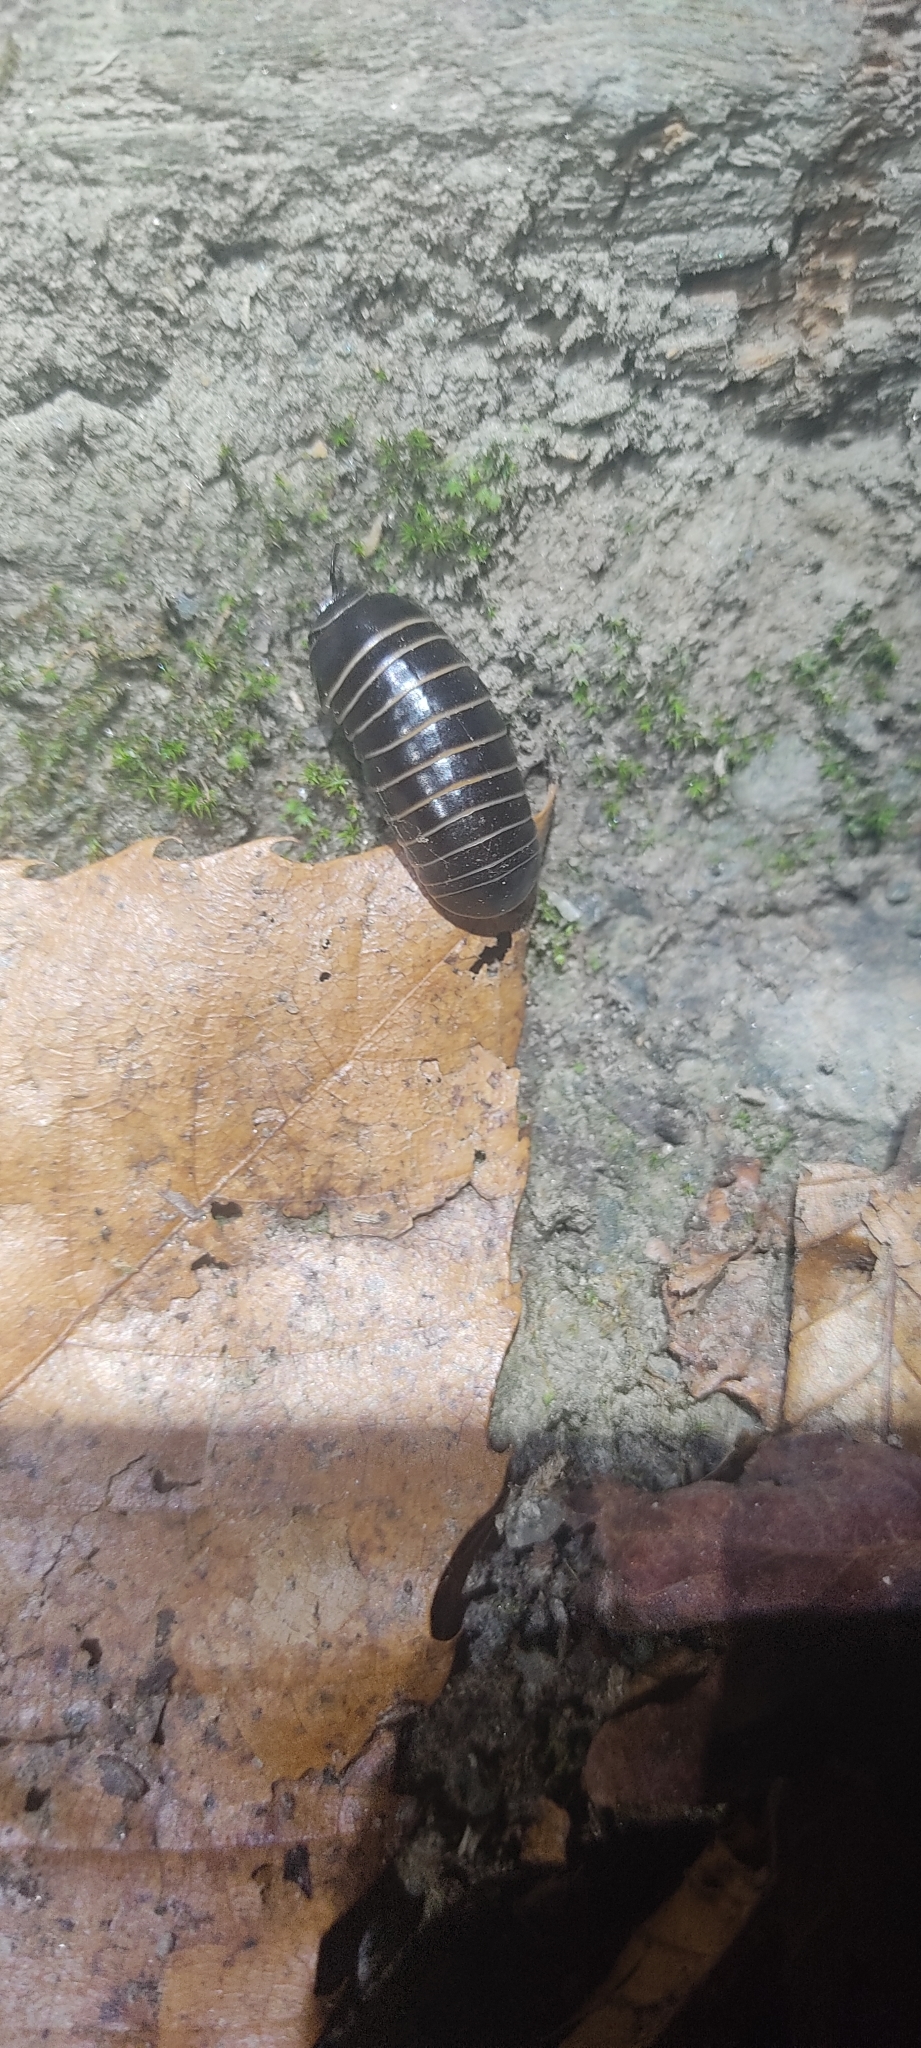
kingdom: Animalia
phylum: Arthropoda
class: Diplopoda
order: Glomerida
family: Glomeridae
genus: Glomeris
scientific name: Glomeris marginata
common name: Bordered pill millipede
